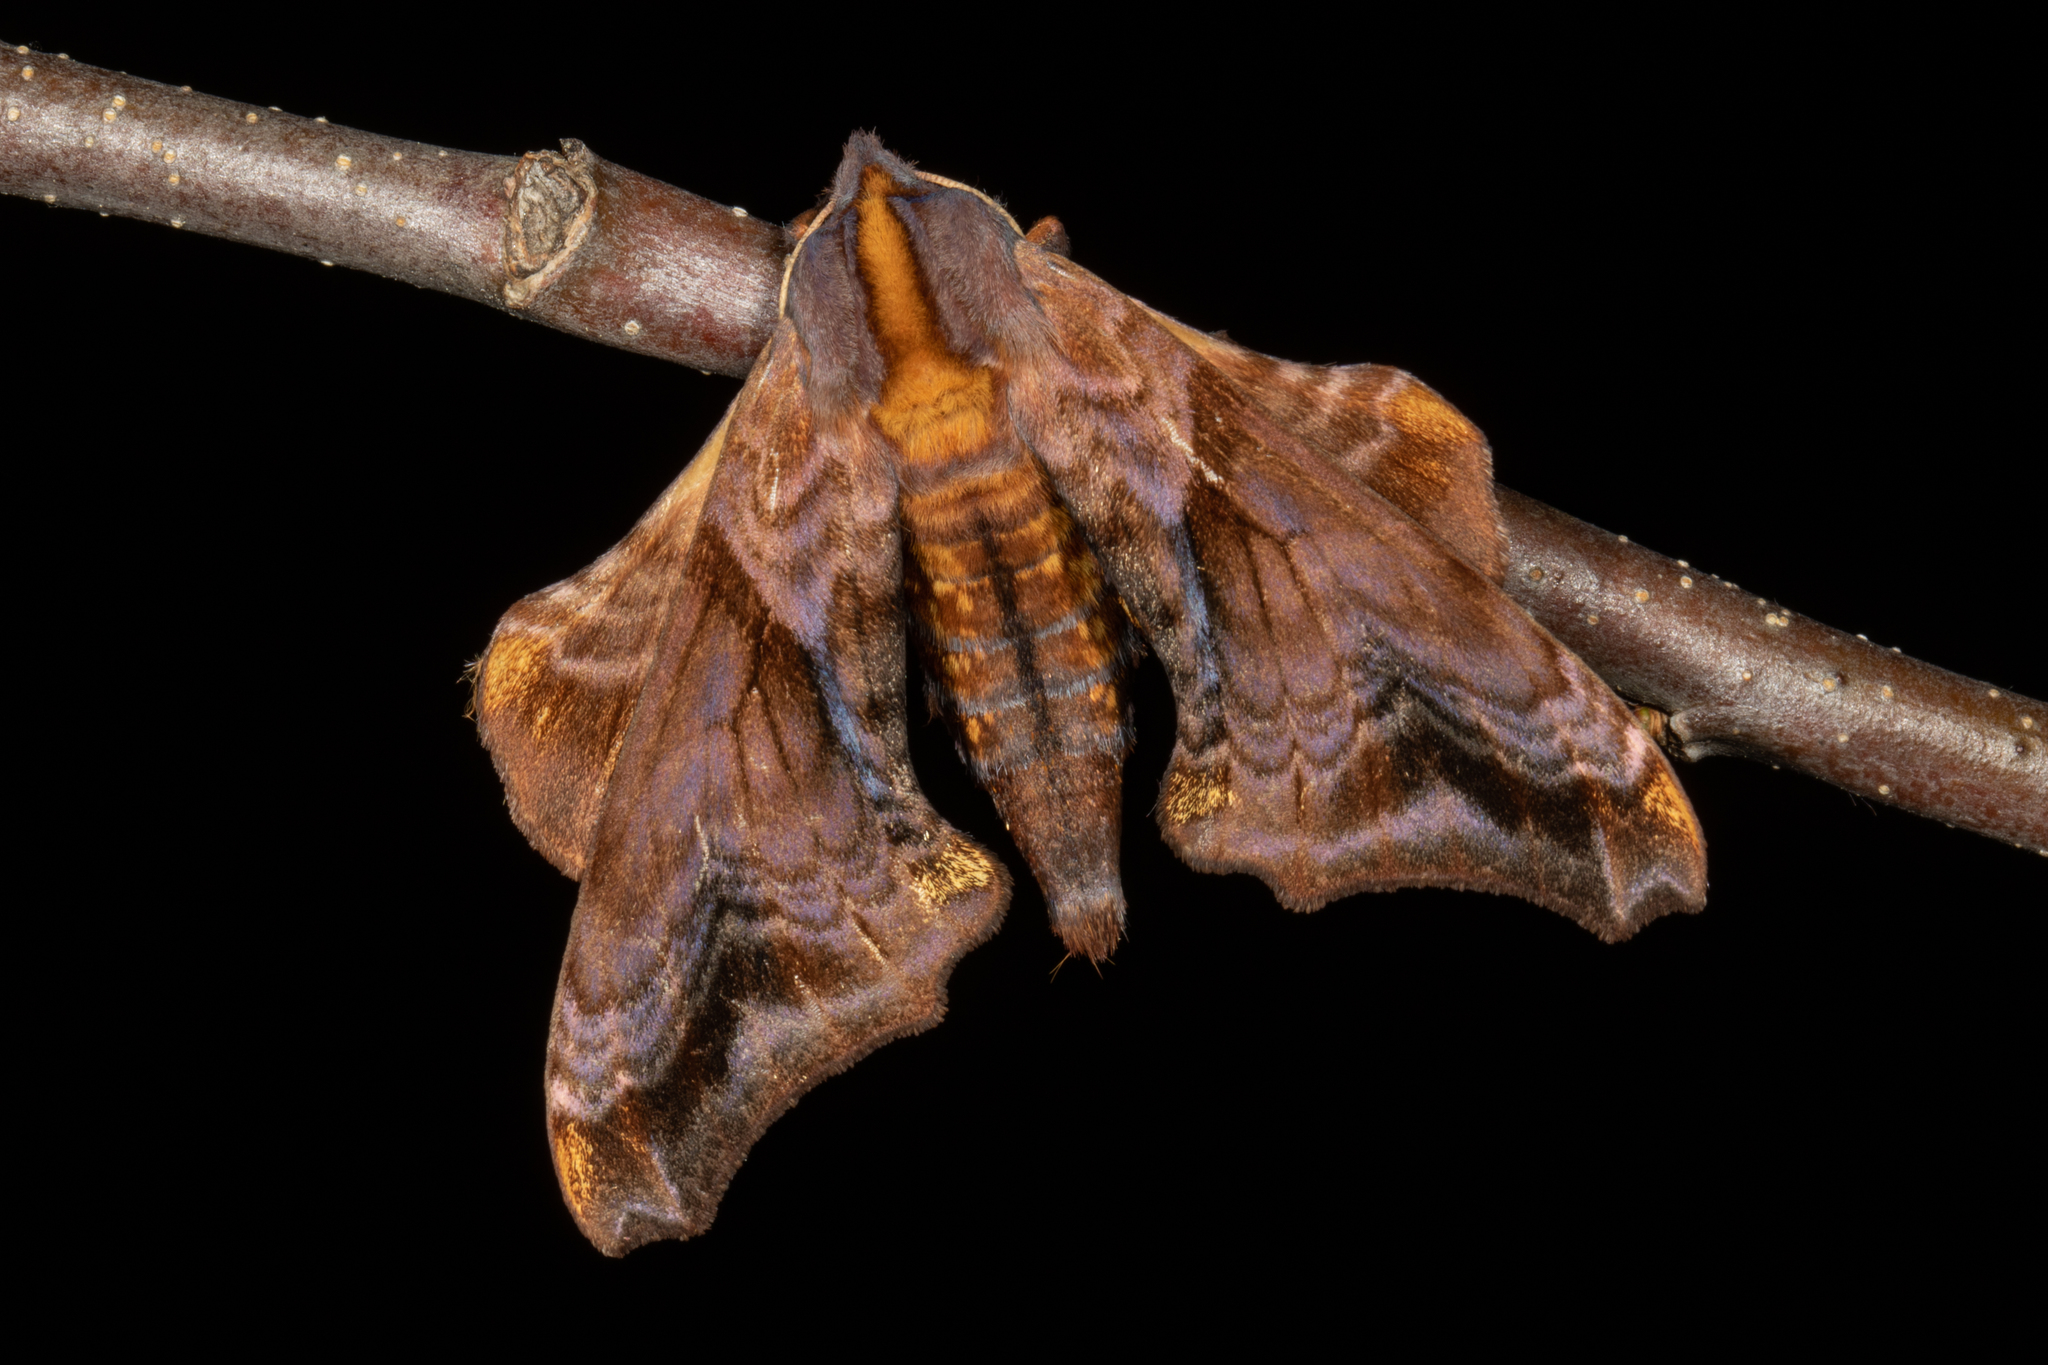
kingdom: Animalia
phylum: Arthropoda
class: Insecta
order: Lepidoptera
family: Sphingidae
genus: Paonias
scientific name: Paonias myops
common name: Small-eyed sphinx
